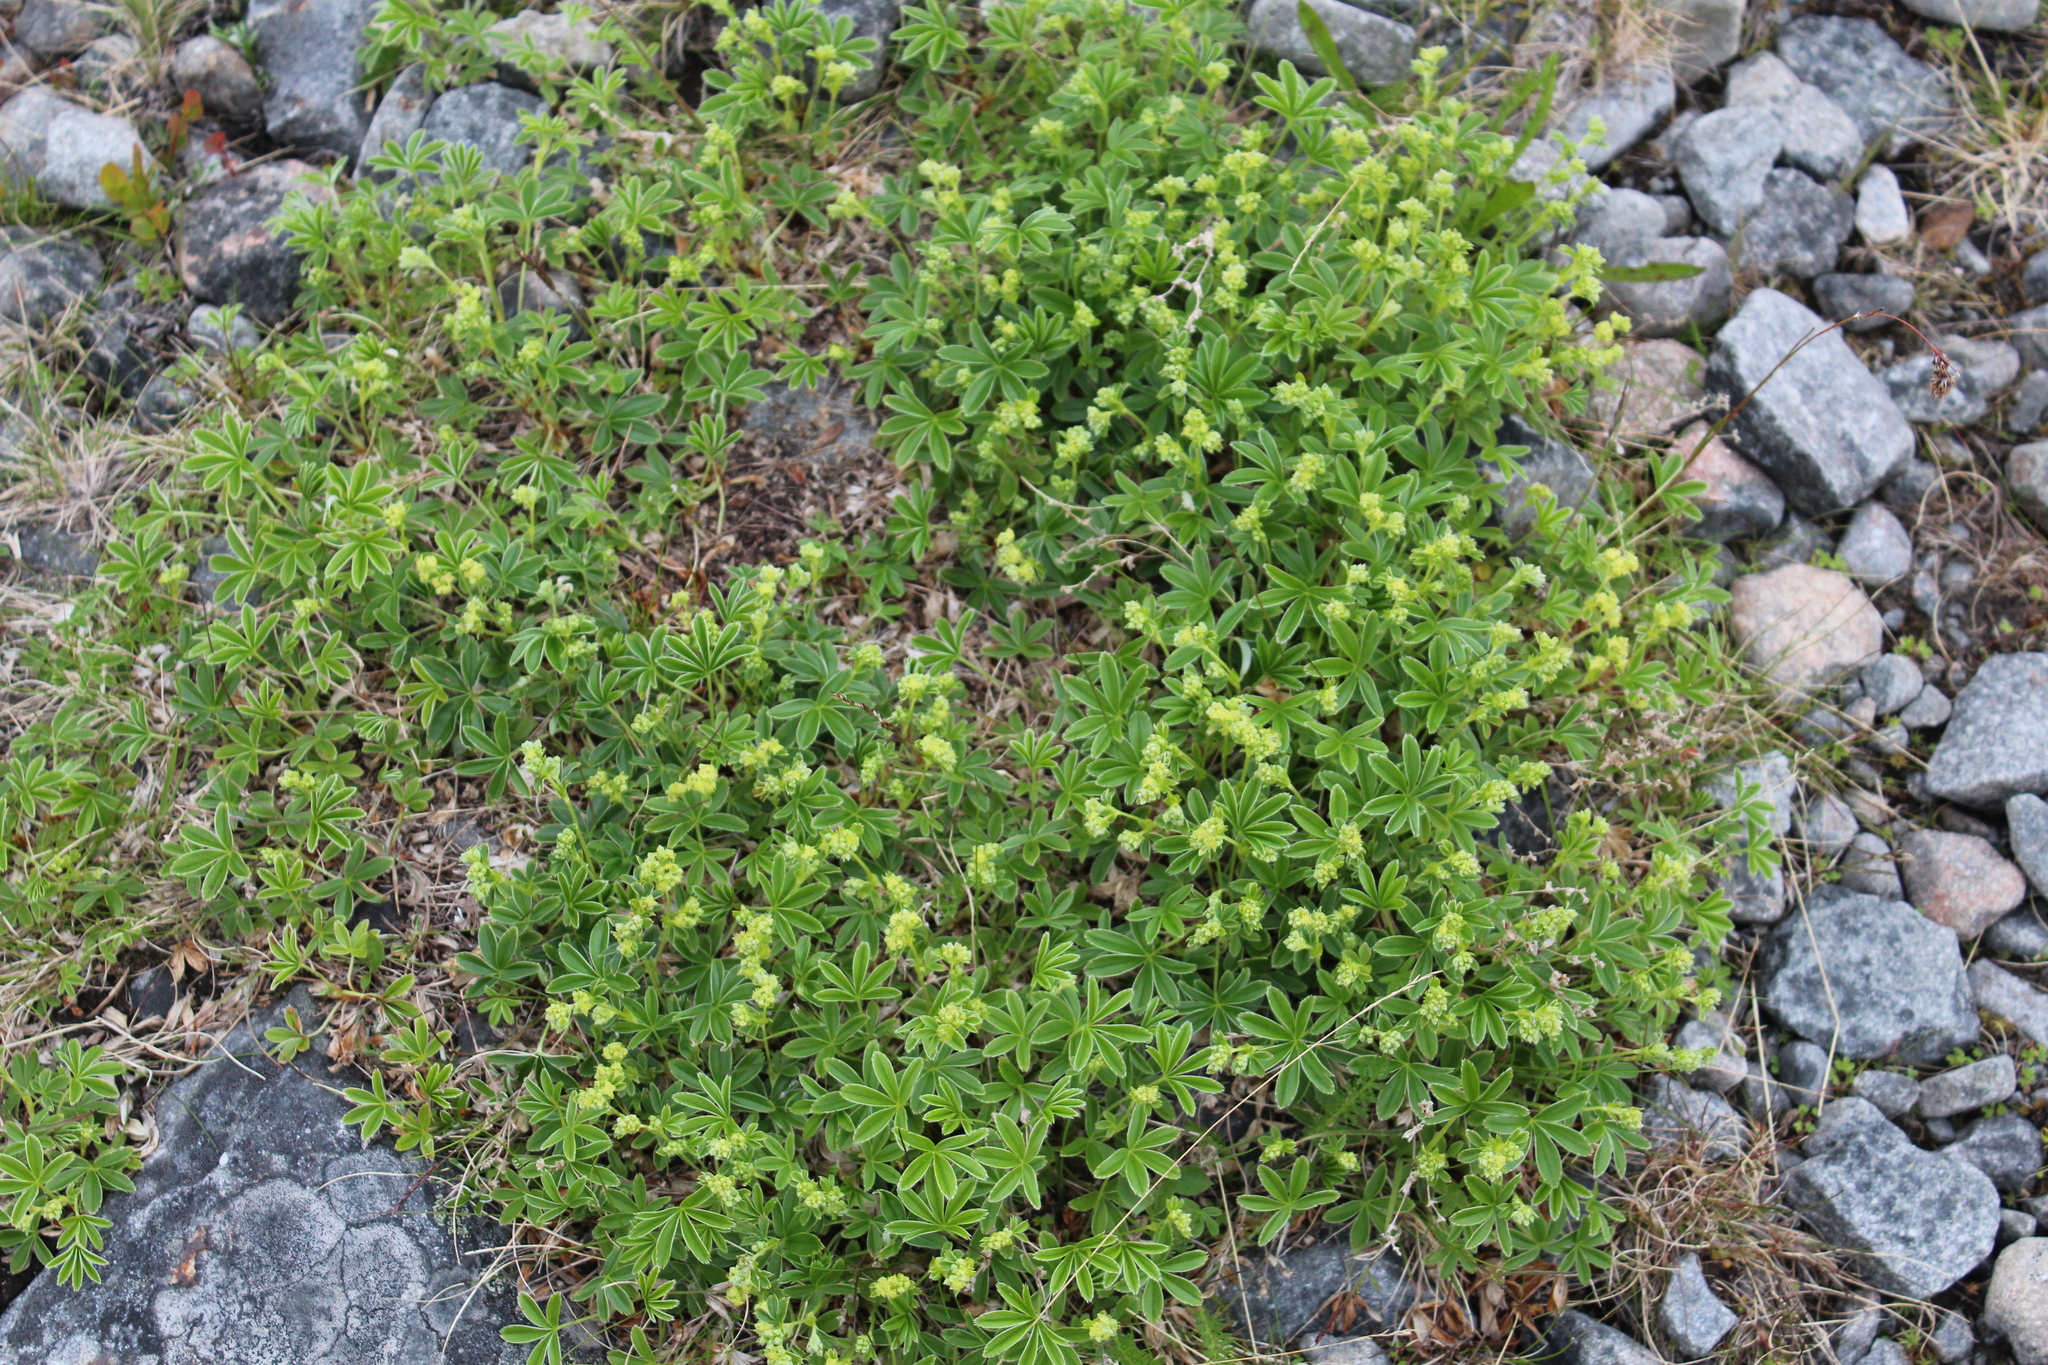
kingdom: Plantae
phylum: Tracheophyta
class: Magnoliopsida
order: Rosales
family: Rosaceae
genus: Alchemilla
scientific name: Alchemilla alpina
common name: Alpine lady's-mantle
